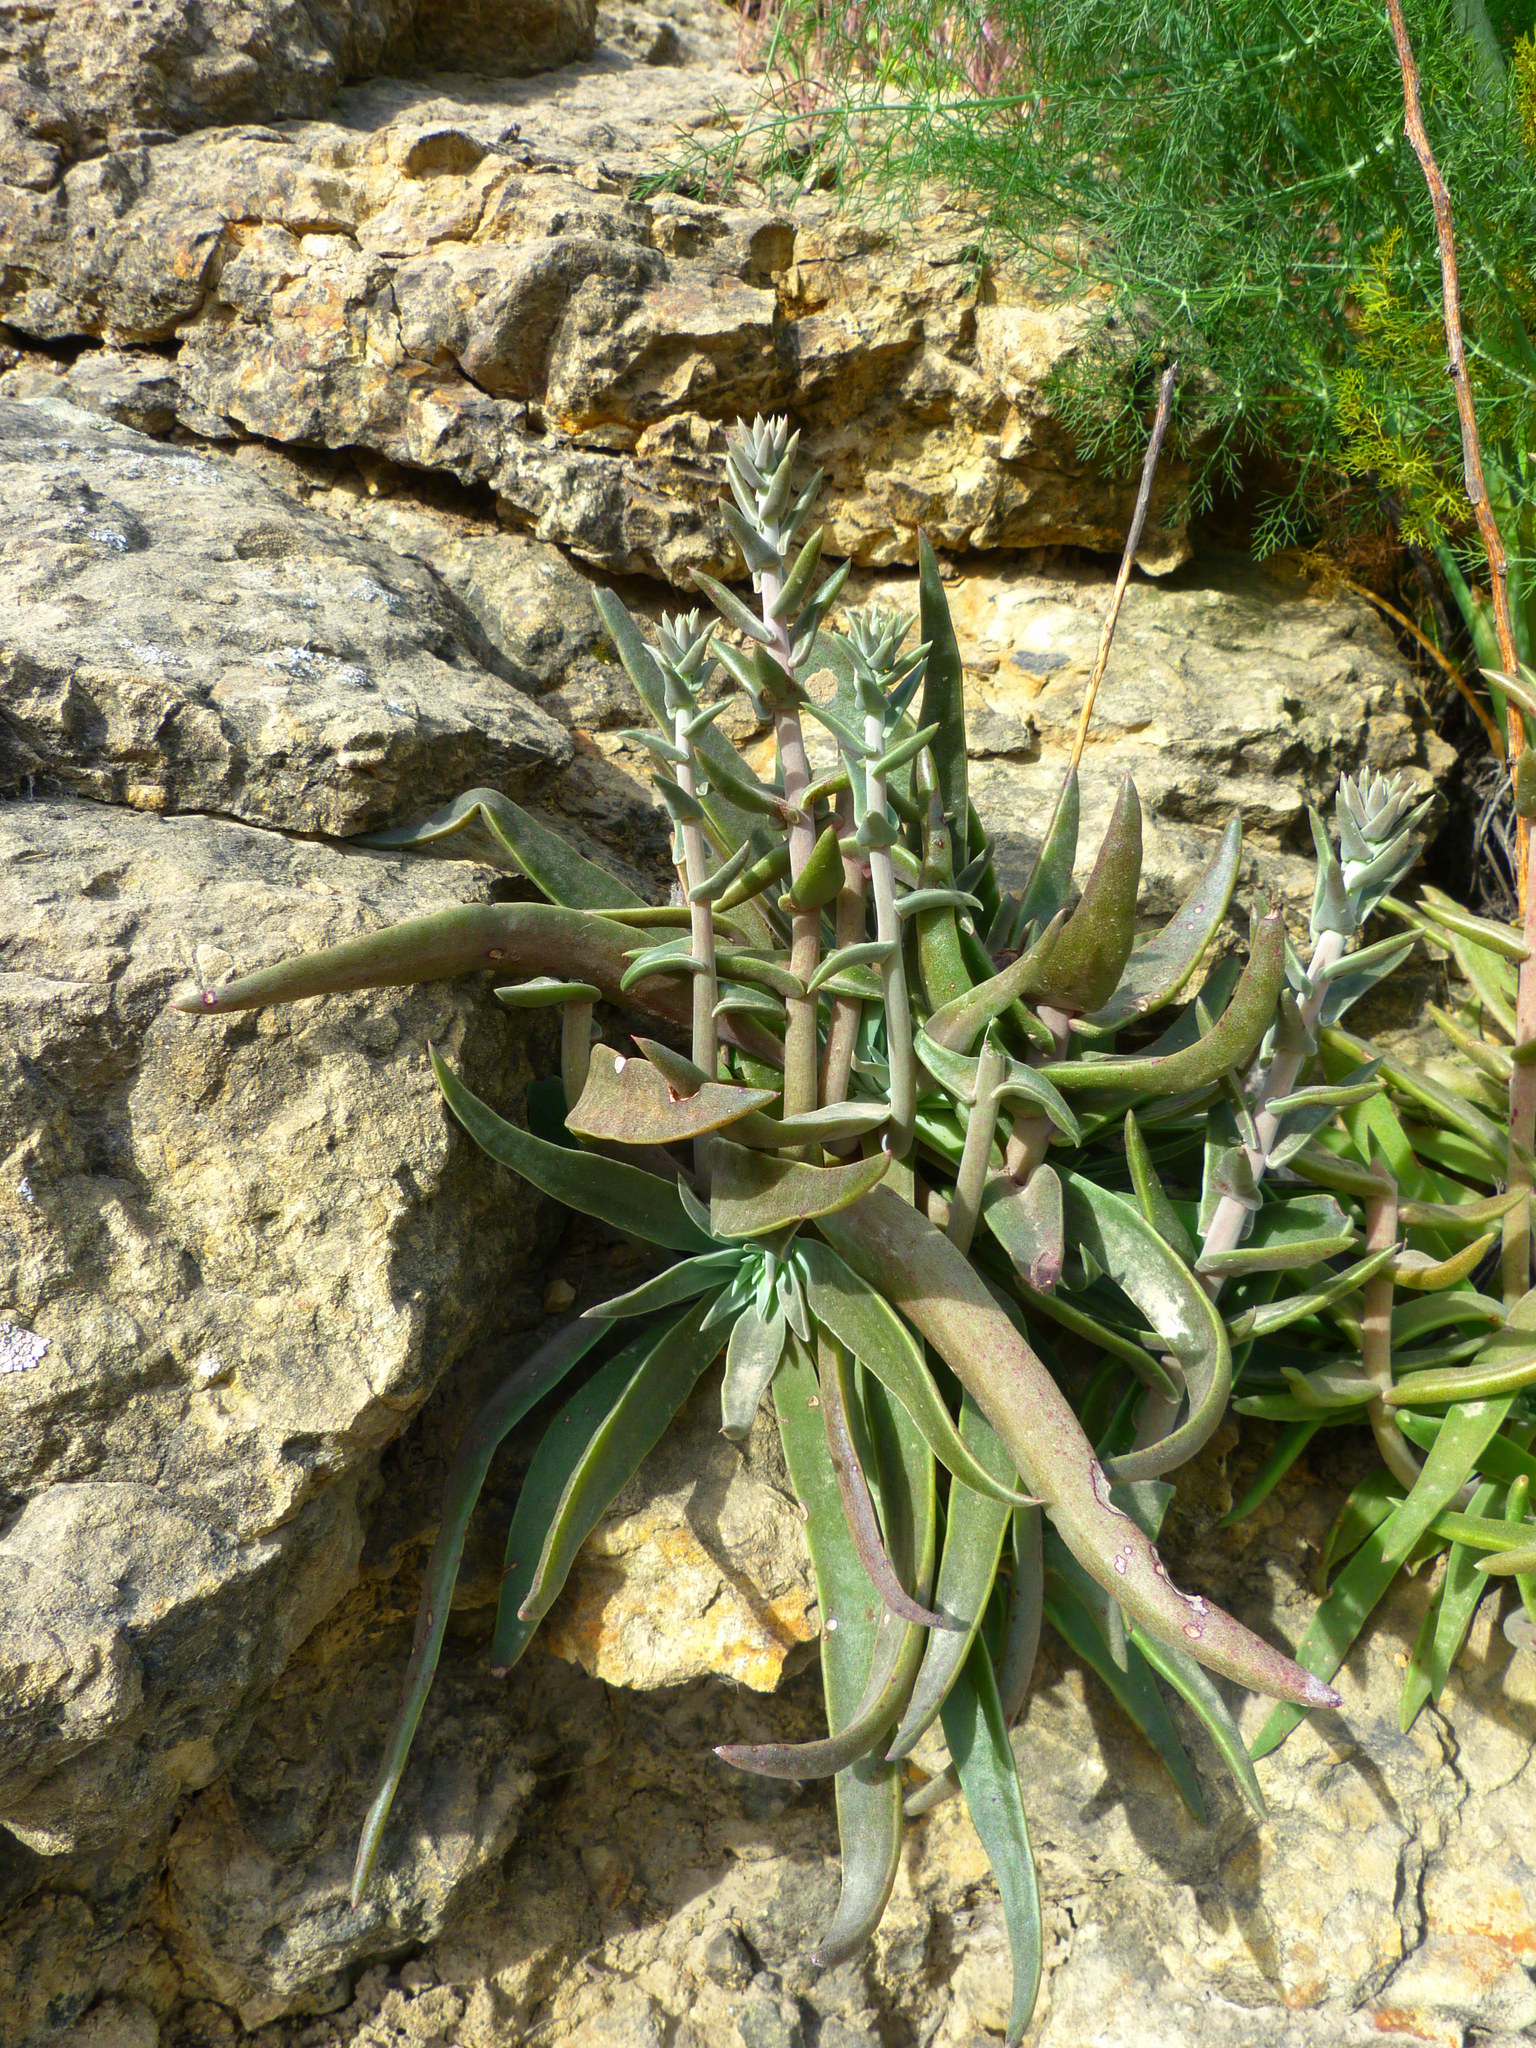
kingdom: Plantae
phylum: Tracheophyta
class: Magnoliopsida
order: Saxifragales
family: Crassulaceae
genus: Dudleya
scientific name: Dudleya lanceolata
